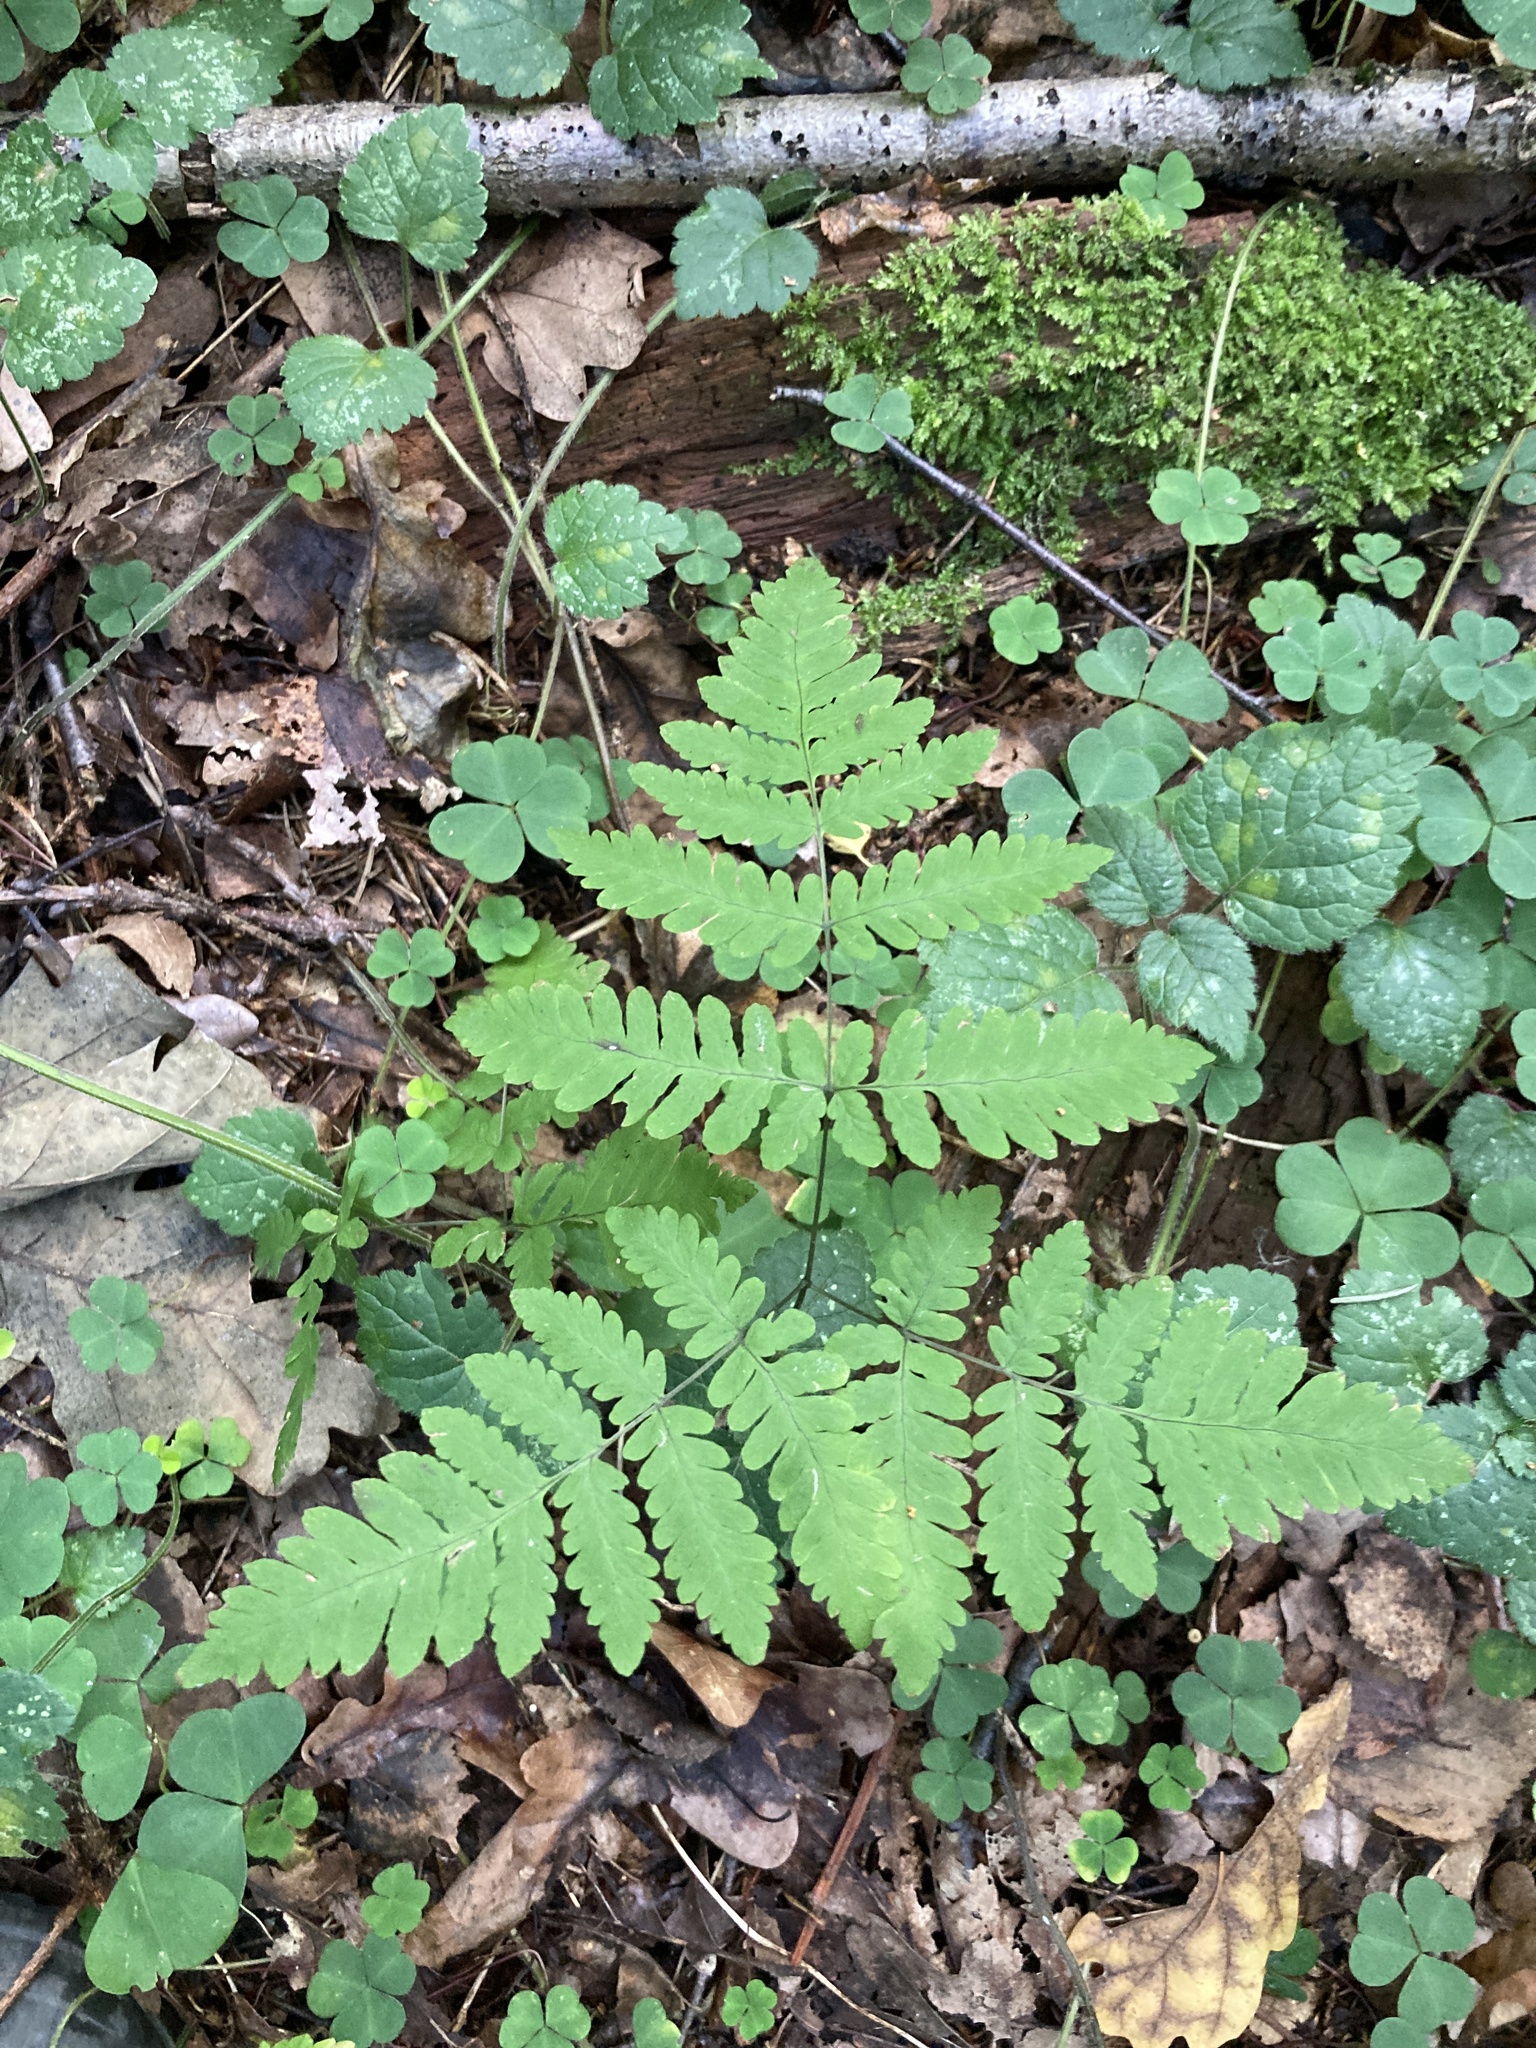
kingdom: Plantae
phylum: Tracheophyta
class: Polypodiopsida
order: Polypodiales
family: Cystopteridaceae
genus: Gymnocarpium
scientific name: Gymnocarpium dryopteris
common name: Oak fern
